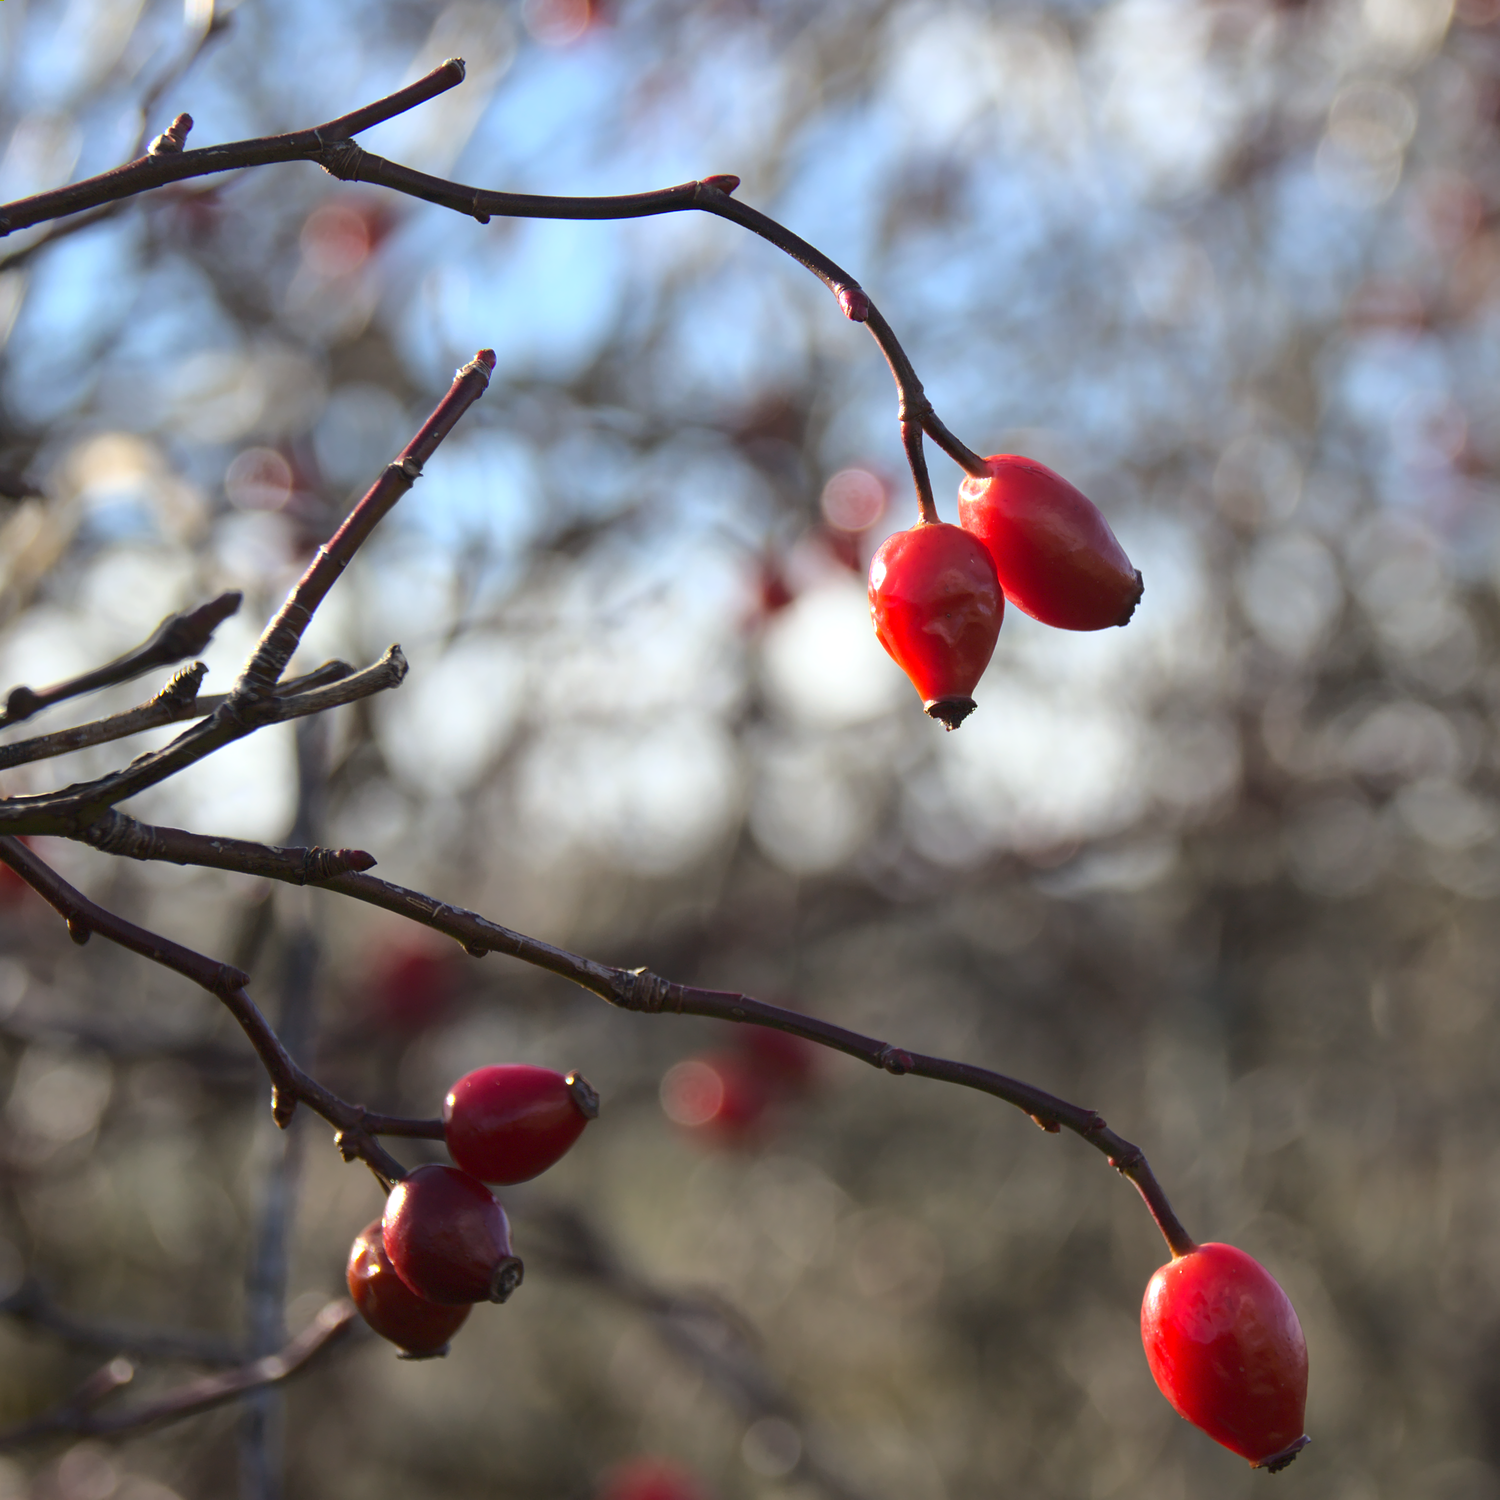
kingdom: Plantae
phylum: Tracheophyta
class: Magnoliopsida
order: Rosales
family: Rosaceae
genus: Rosa
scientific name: Rosa canina
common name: Dog rose
